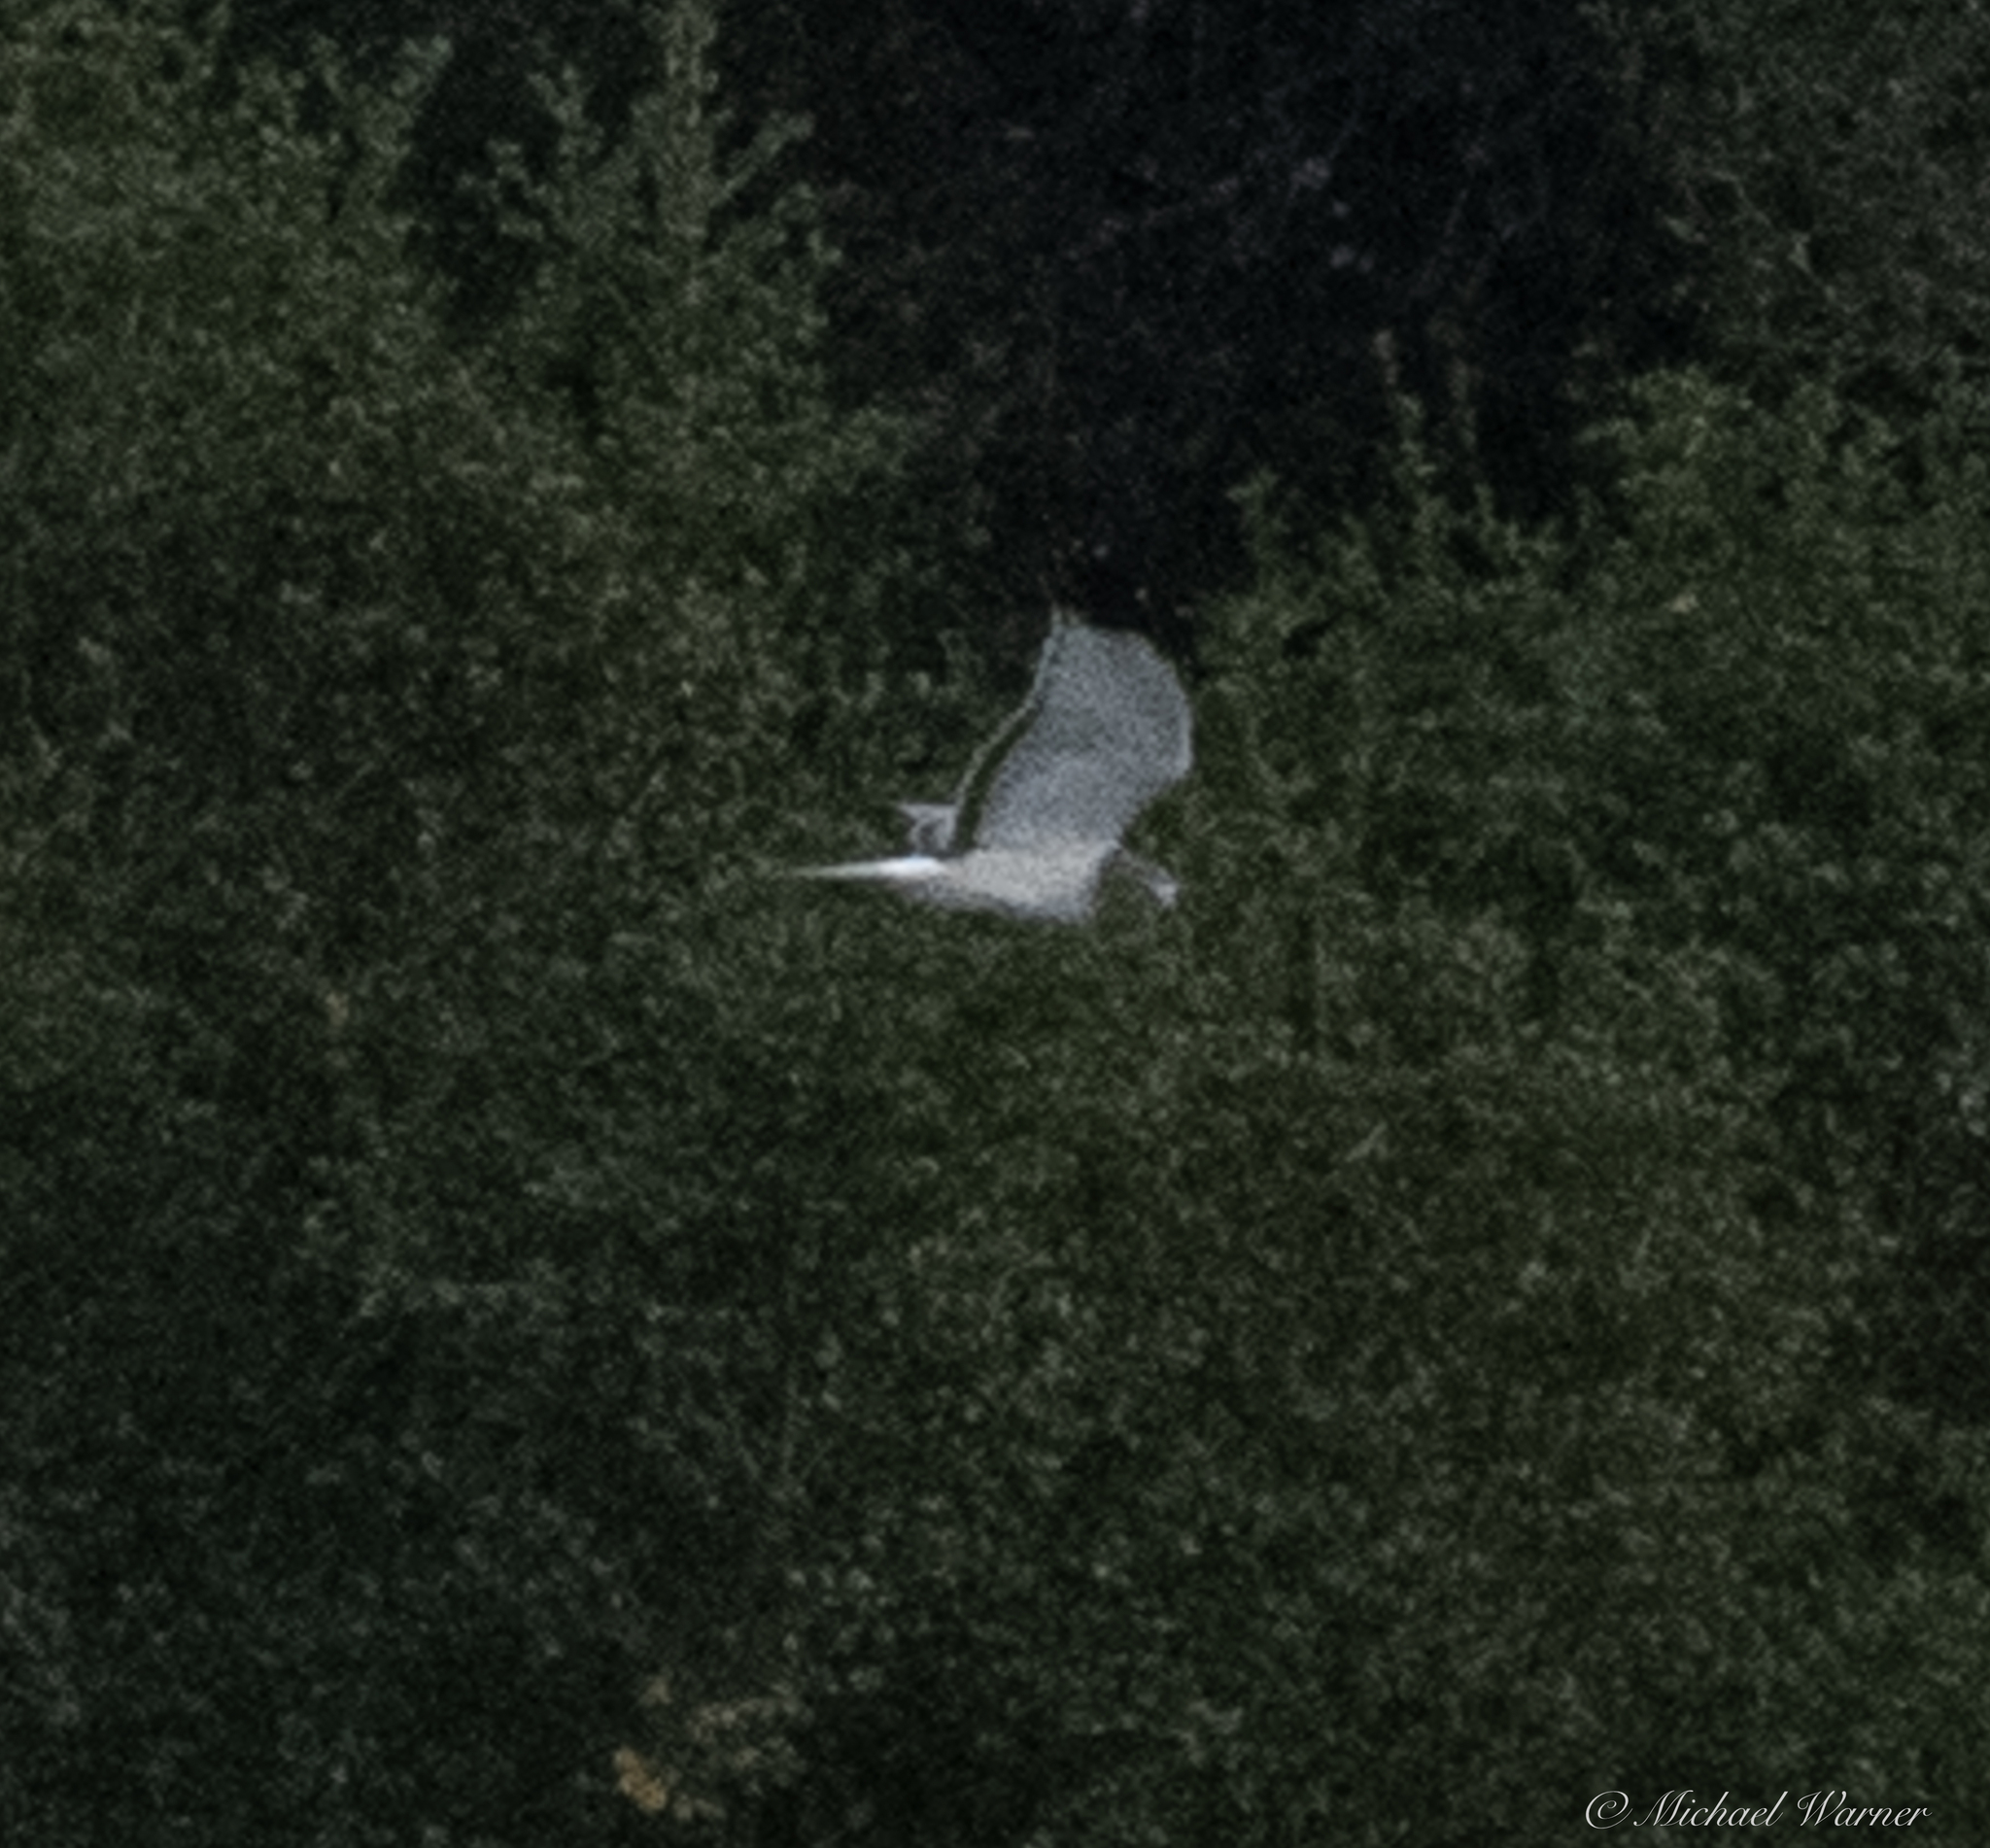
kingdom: Animalia
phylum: Chordata
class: Aves
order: Accipitriformes
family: Accipitridae
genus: Circus
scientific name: Circus cyaneus
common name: Hen harrier
